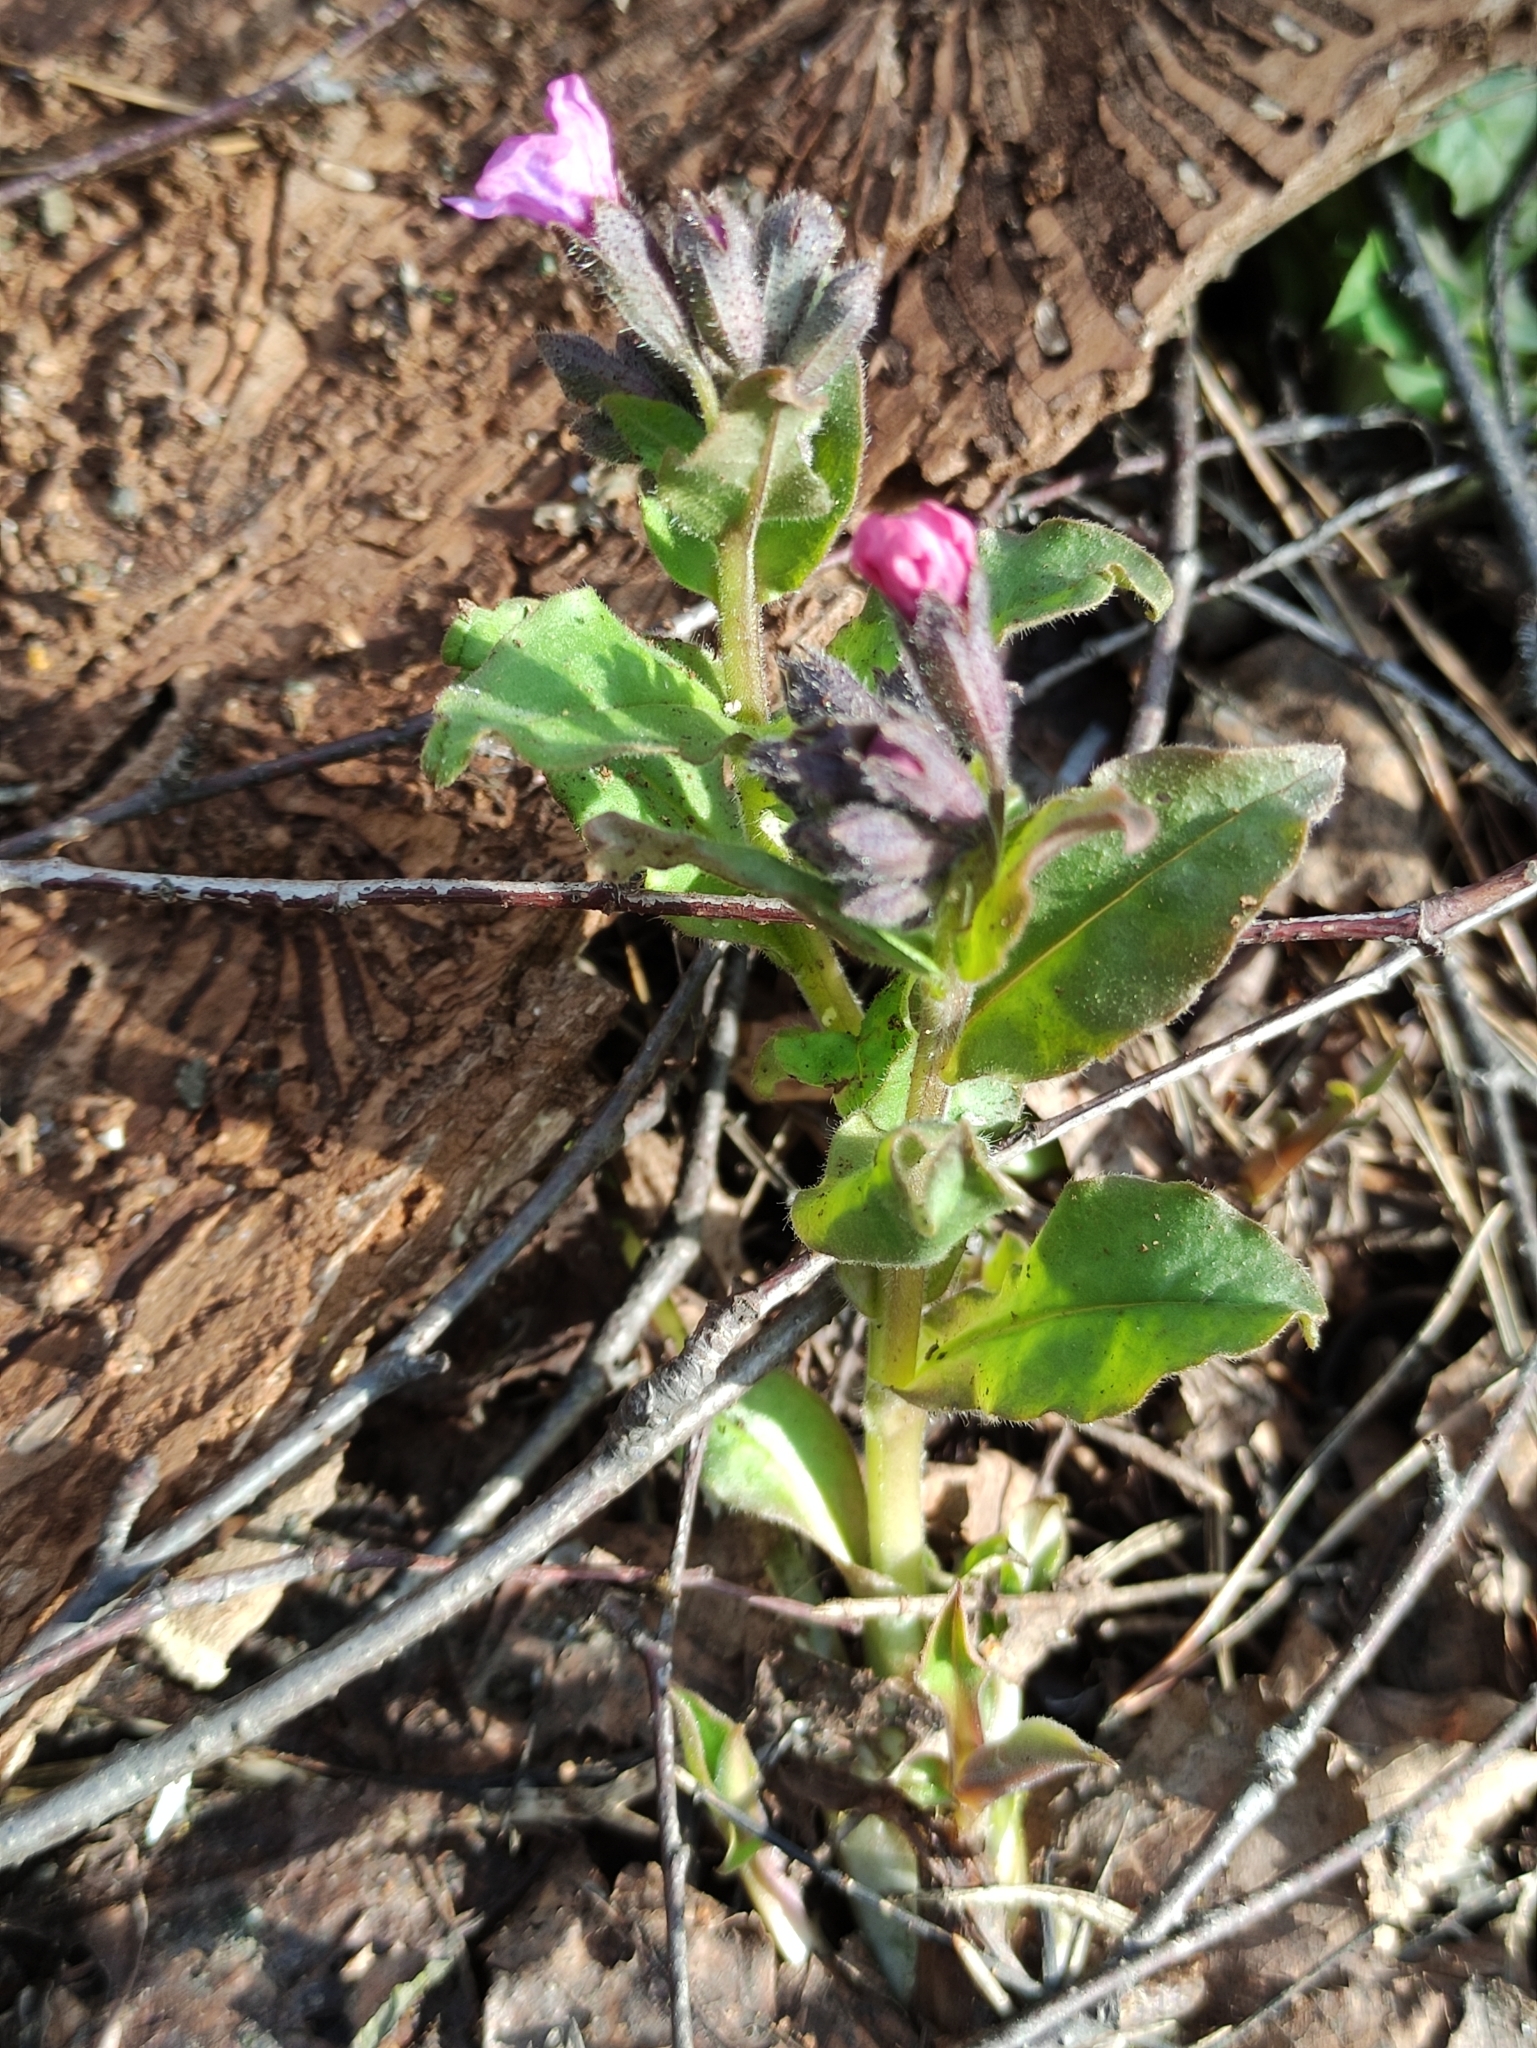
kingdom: Plantae
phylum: Tracheophyta
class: Magnoliopsida
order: Boraginales
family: Boraginaceae
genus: Pulmonaria
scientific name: Pulmonaria obscura
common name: Suffolk lungwort
